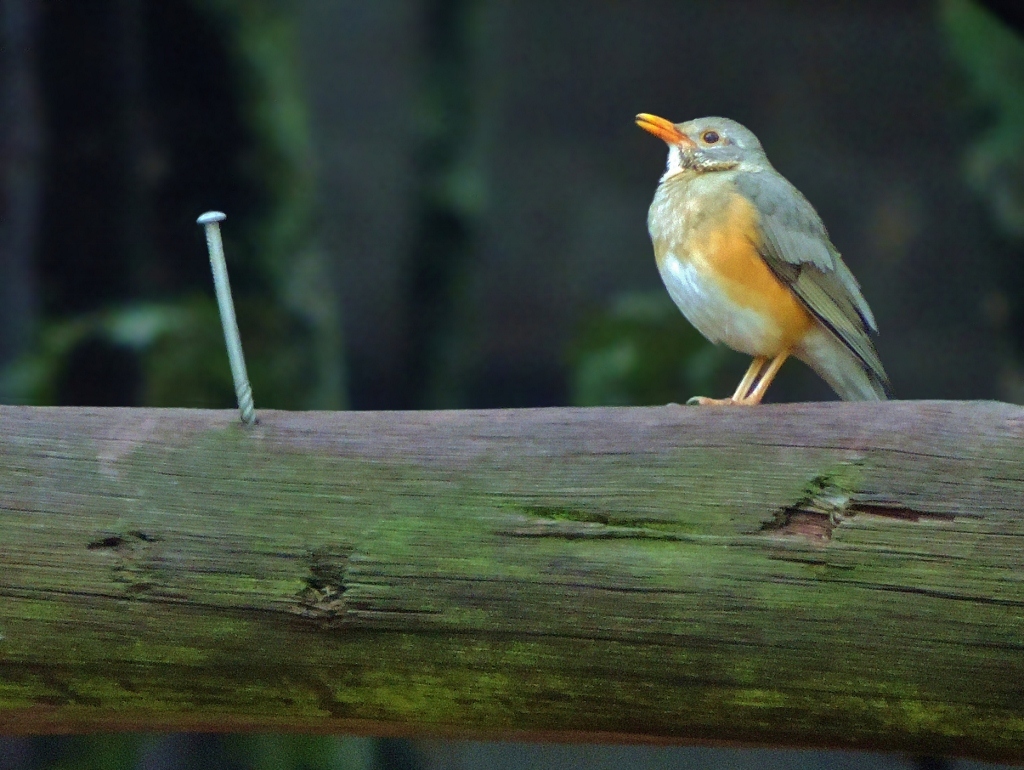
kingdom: Animalia
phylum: Chordata
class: Aves
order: Passeriformes
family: Turdidae
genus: Turdus
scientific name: Turdus libonyana
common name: Kurrichane thrush
